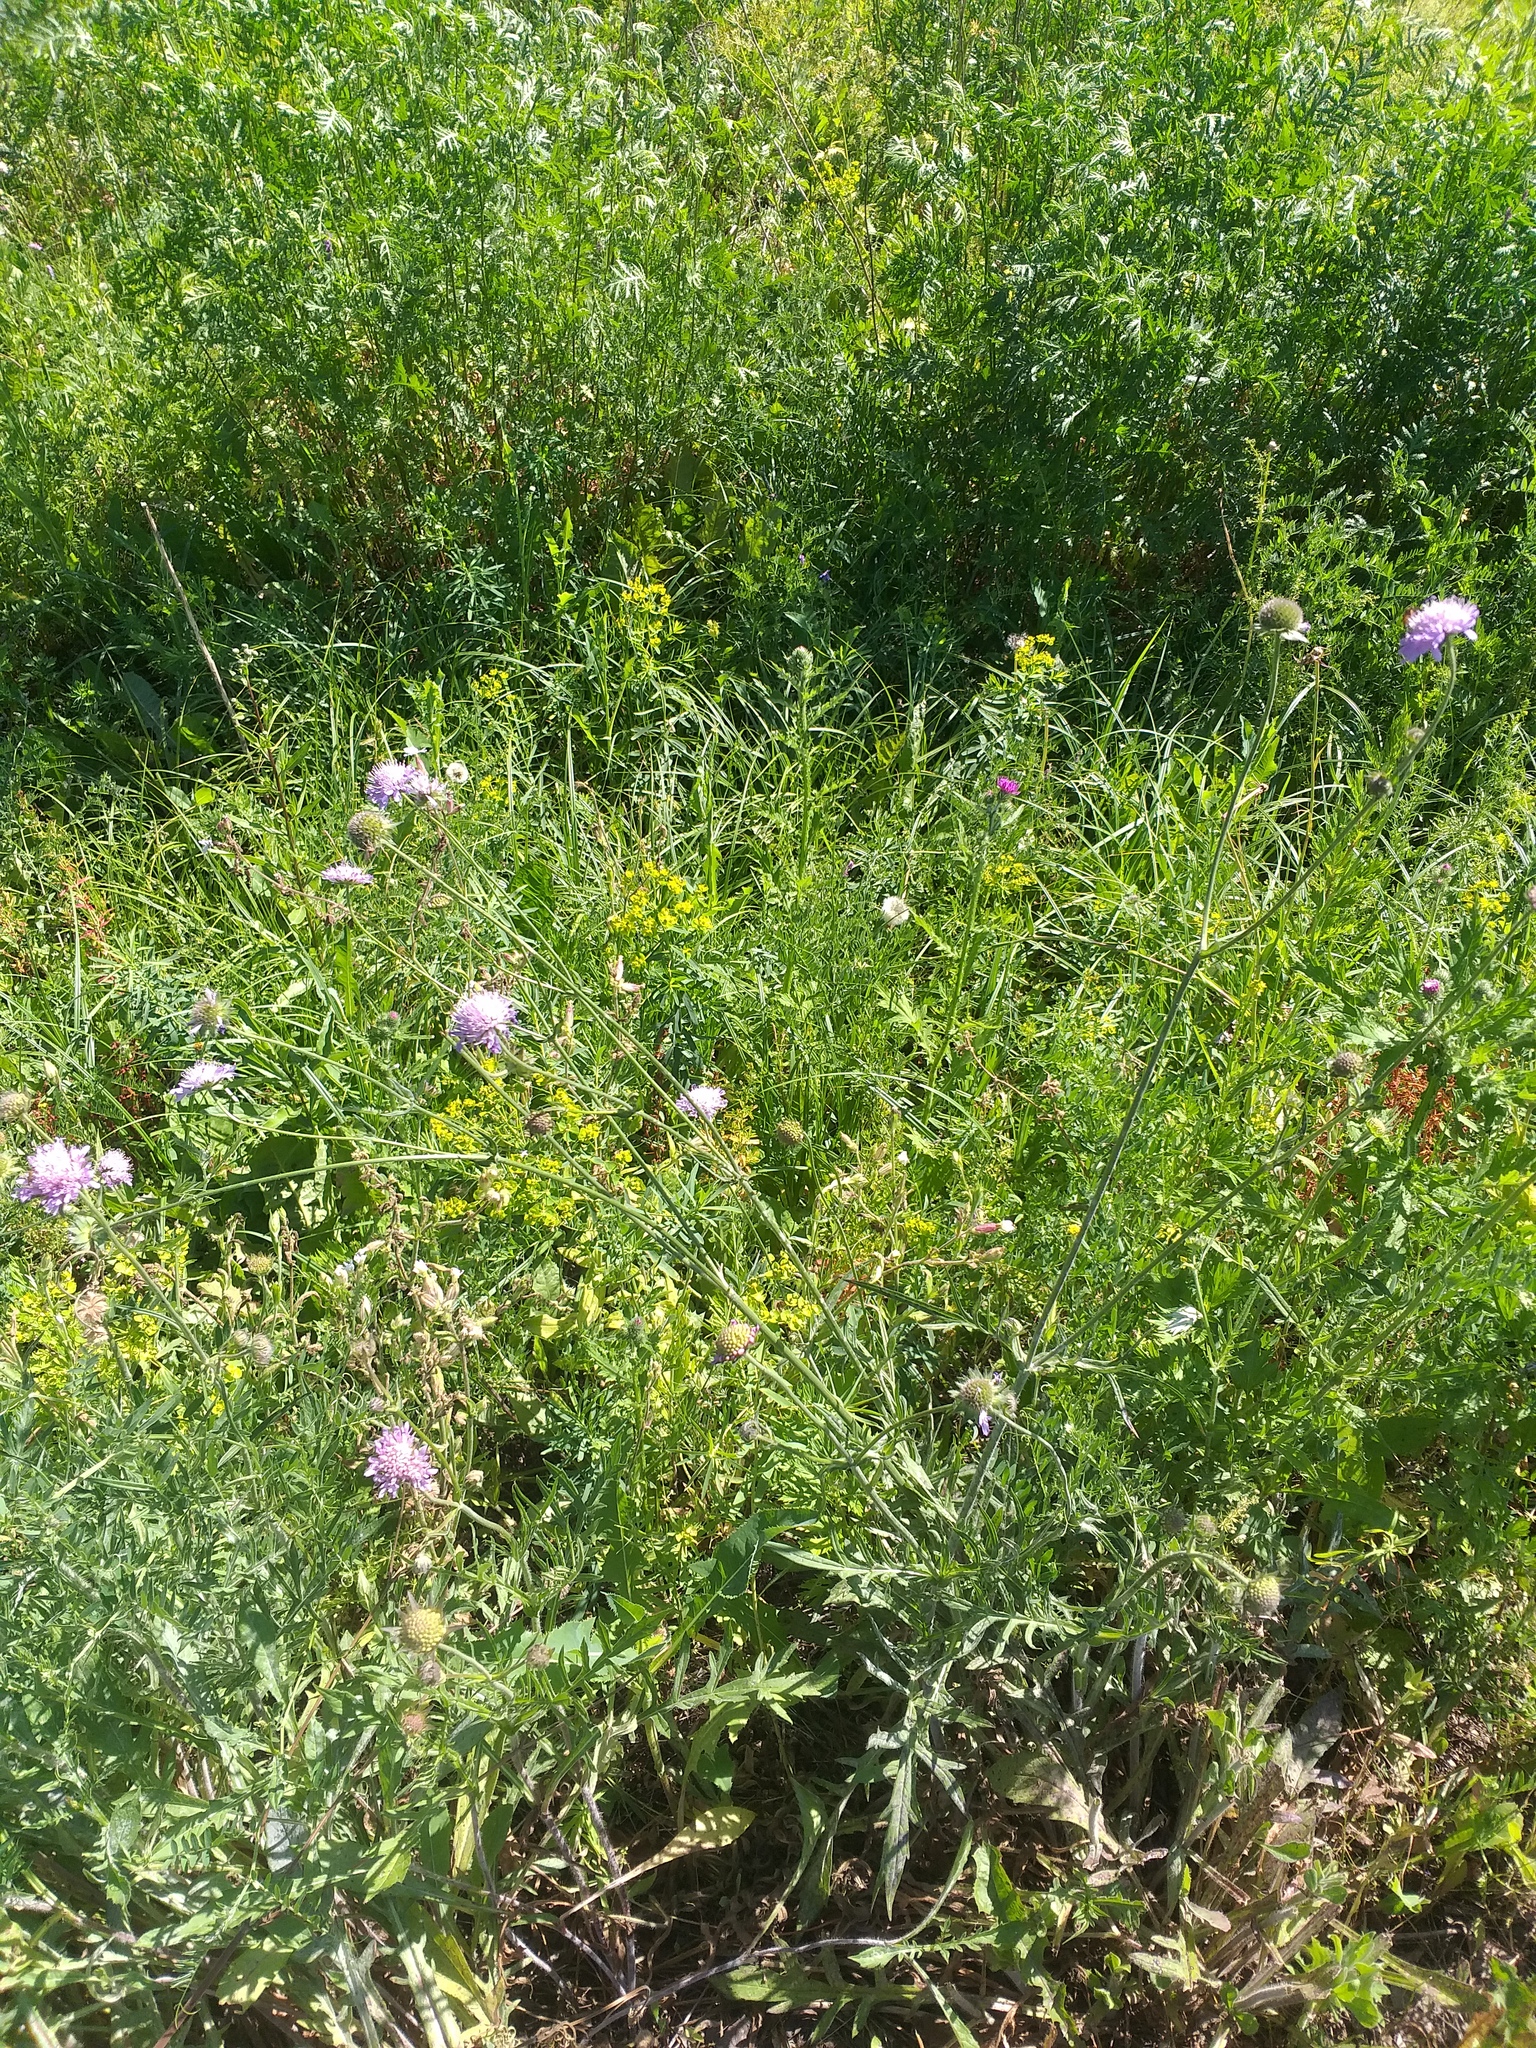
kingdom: Plantae
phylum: Tracheophyta
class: Magnoliopsida
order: Dipsacales
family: Caprifoliaceae
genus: Knautia
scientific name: Knautia arvensis
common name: Field scabiosa
